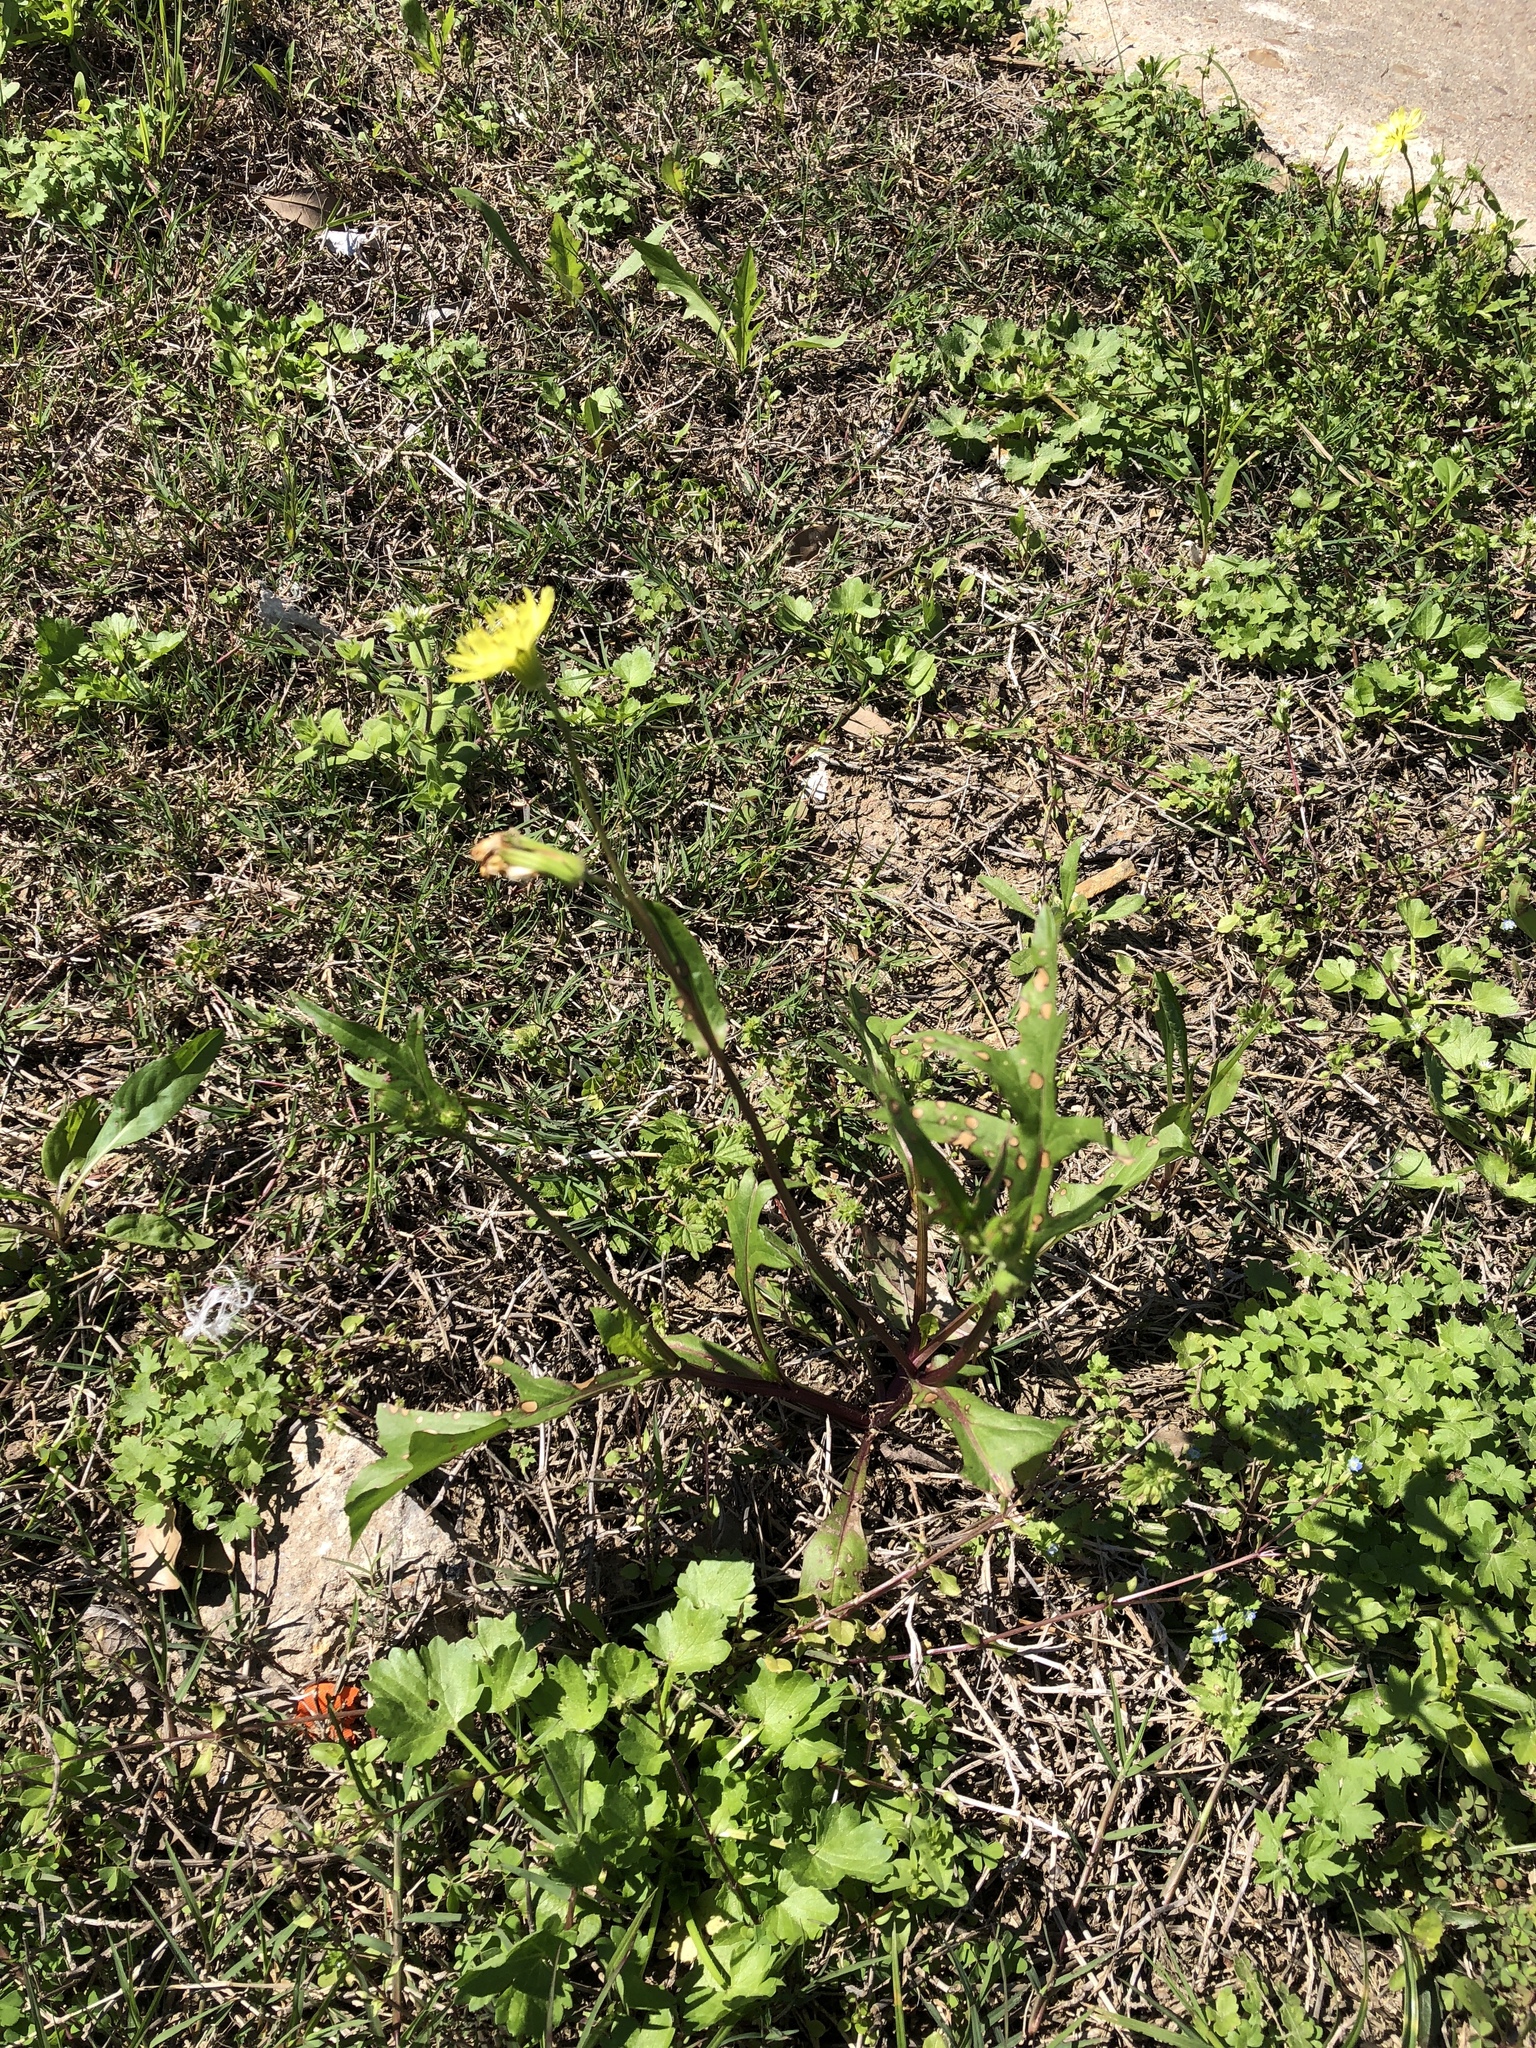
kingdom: Plantae
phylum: Tracheophyta
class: Magnoliopsida
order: Asterales
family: Asteraceae
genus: Pyrrhopappus
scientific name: Pyrrhopappus carolinianus
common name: Carolina desert-chicory
